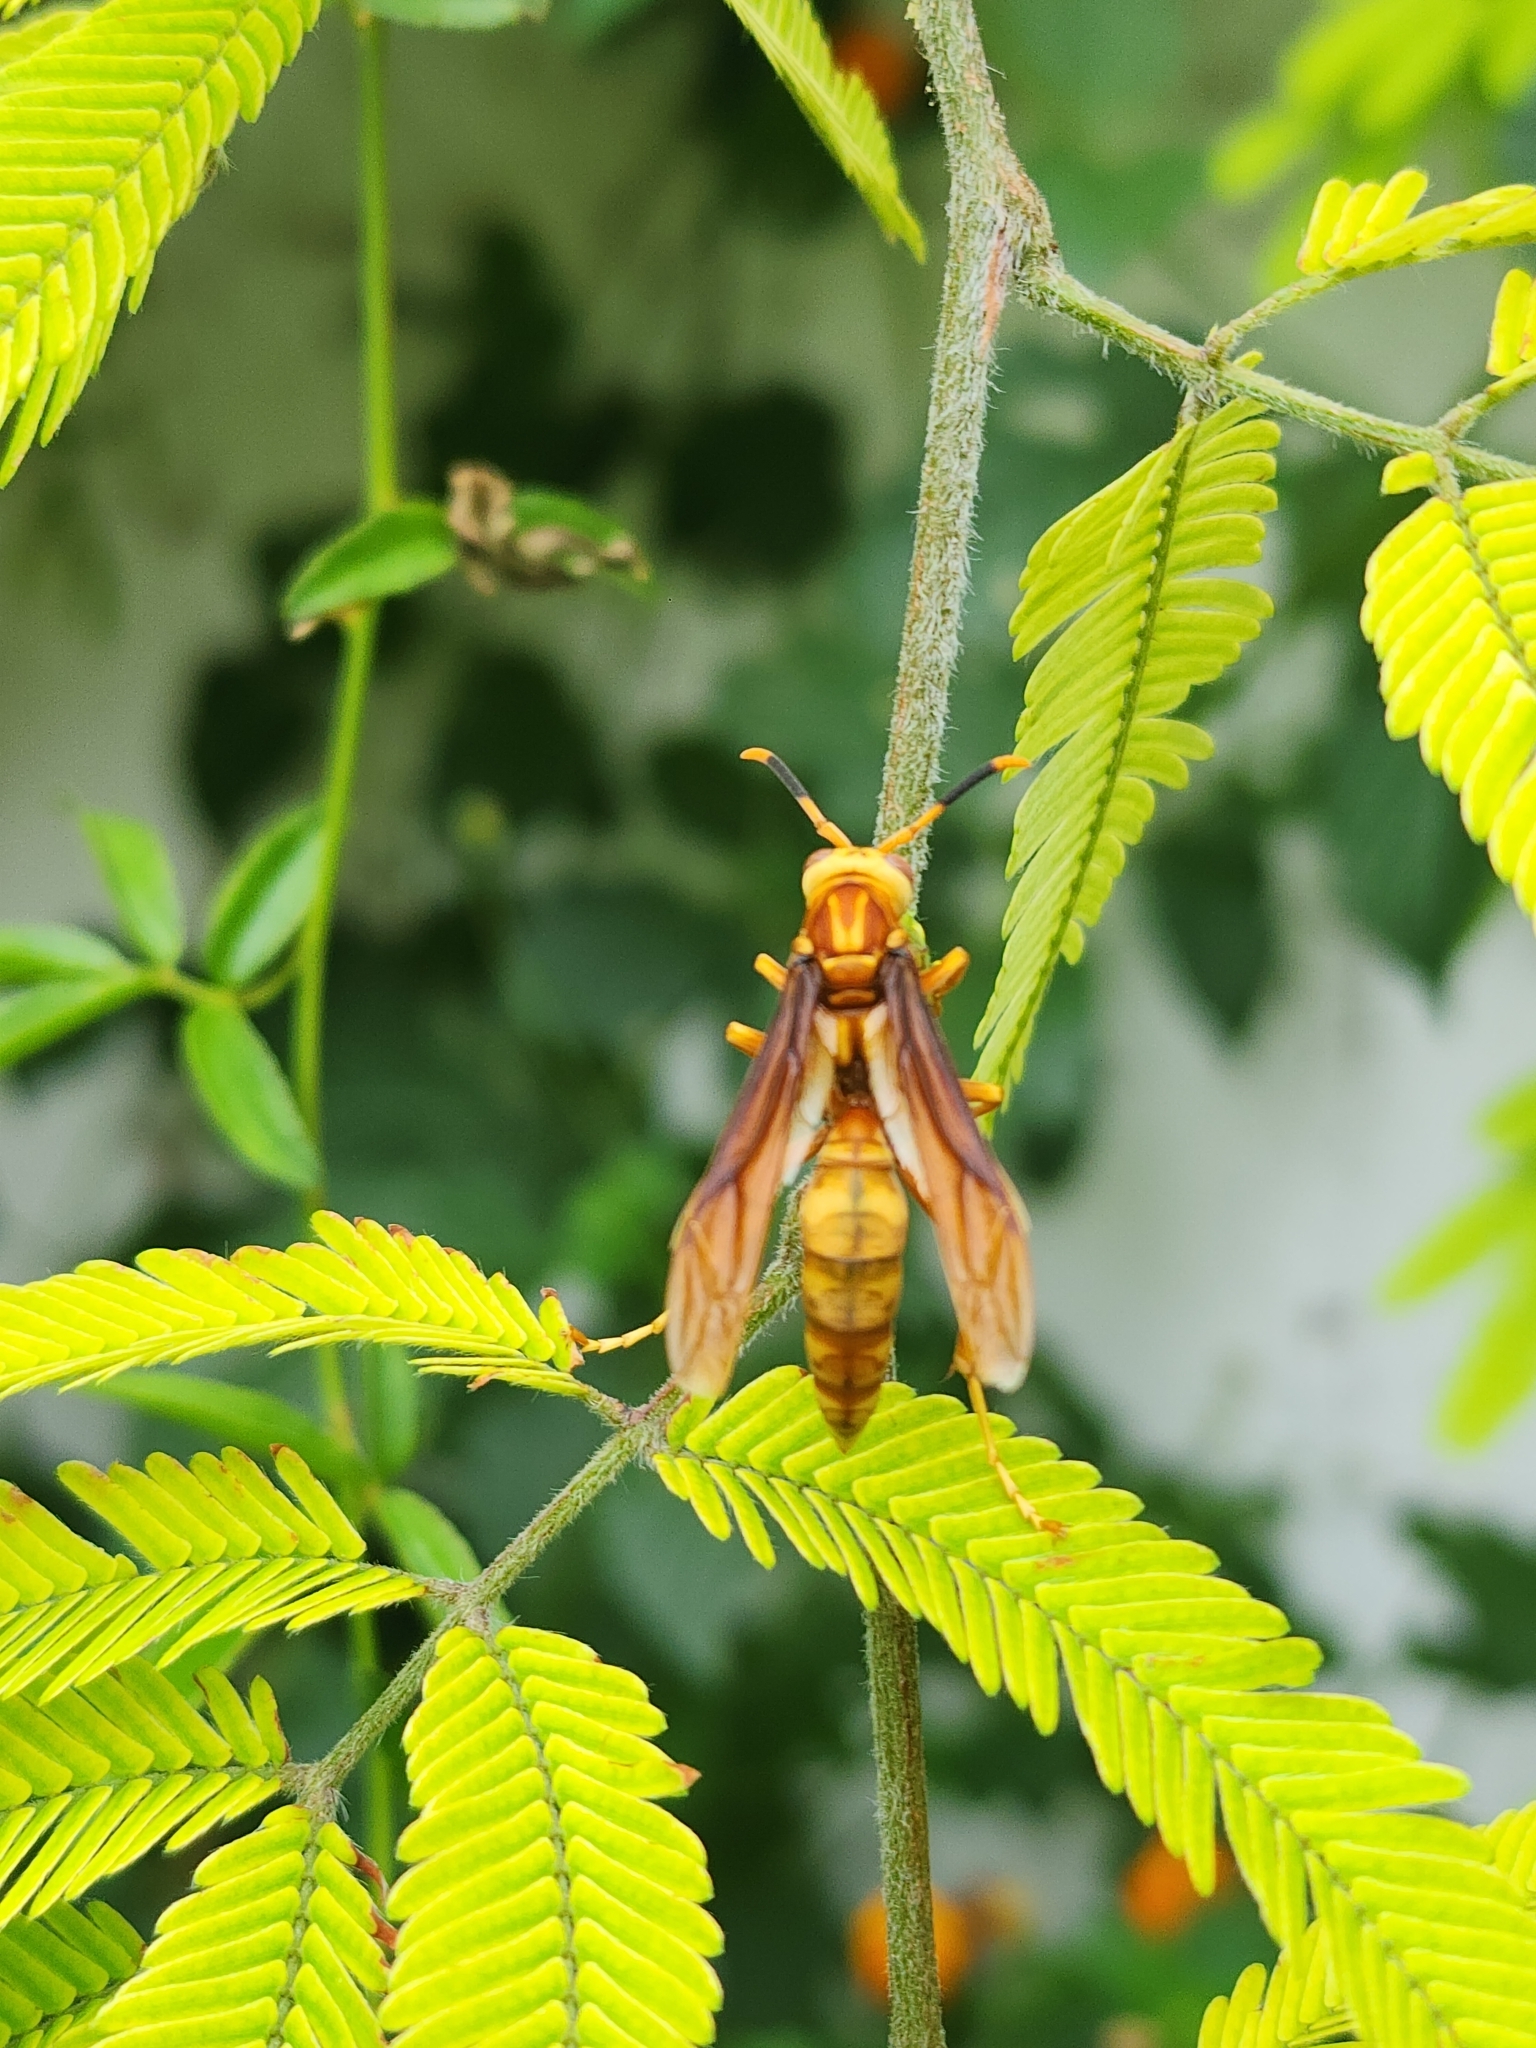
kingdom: Animalia
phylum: Arthropoda
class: Insecta
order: Hymenoptera
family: Eumenidae
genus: Polistes
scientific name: Polistes cavapyta
